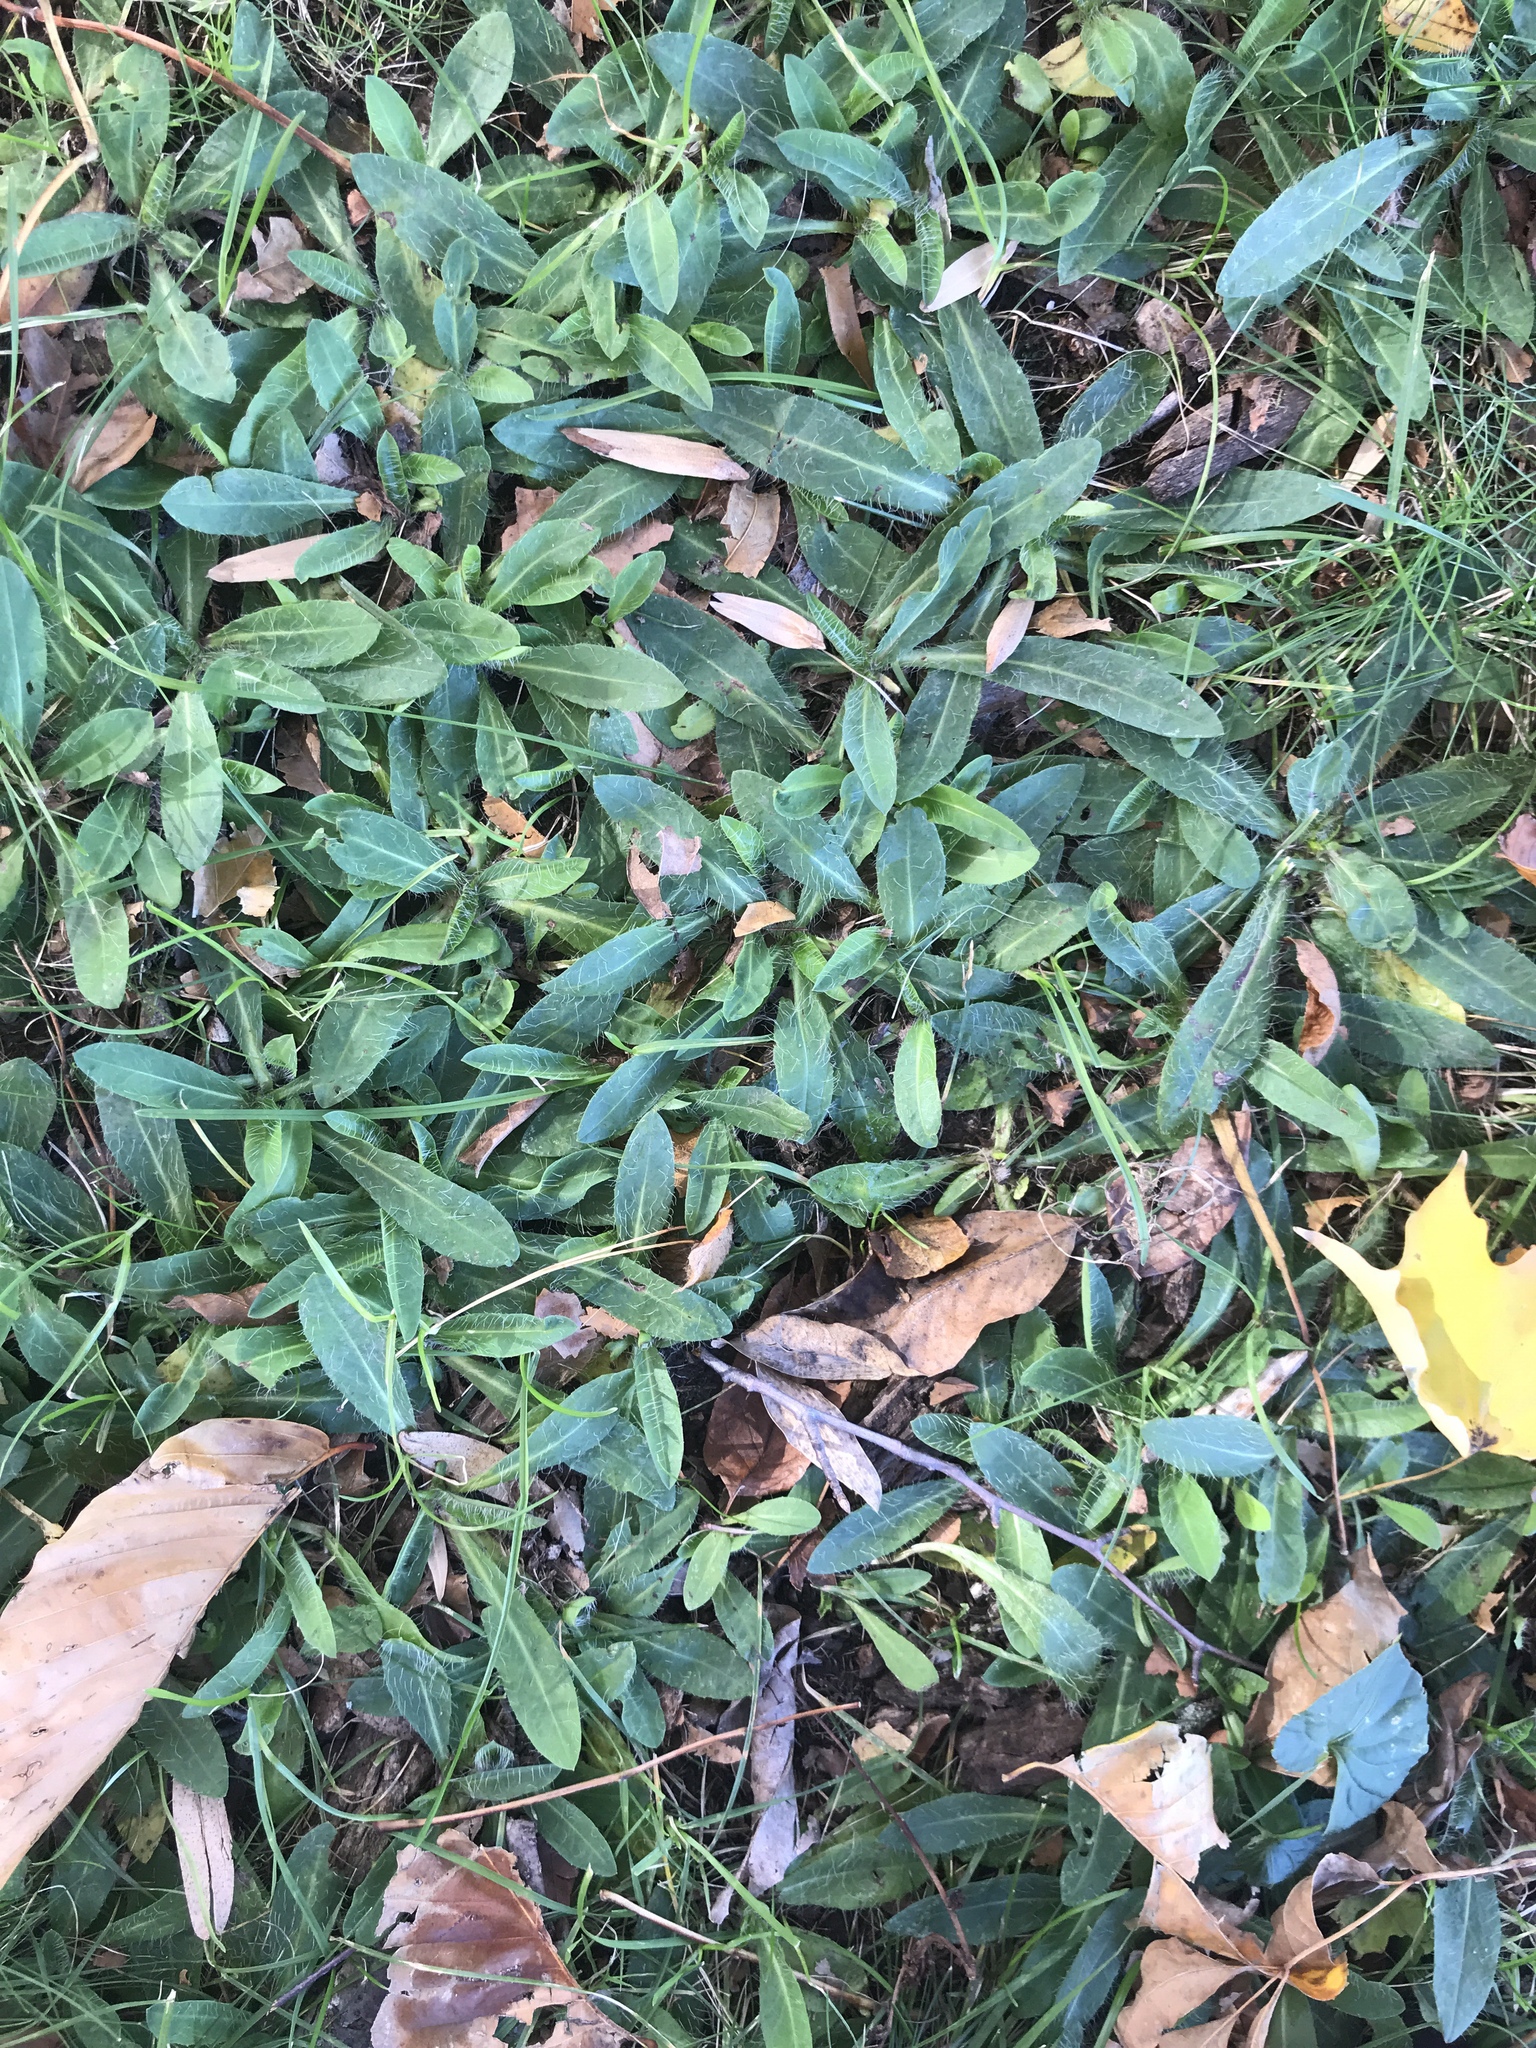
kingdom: Plantae
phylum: Tracheophyta
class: Magnoliopsida
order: Asterales
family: Asteraceae
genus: Pilosella
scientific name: Pilosella officinarum
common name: Mouse-ear hawkweed
